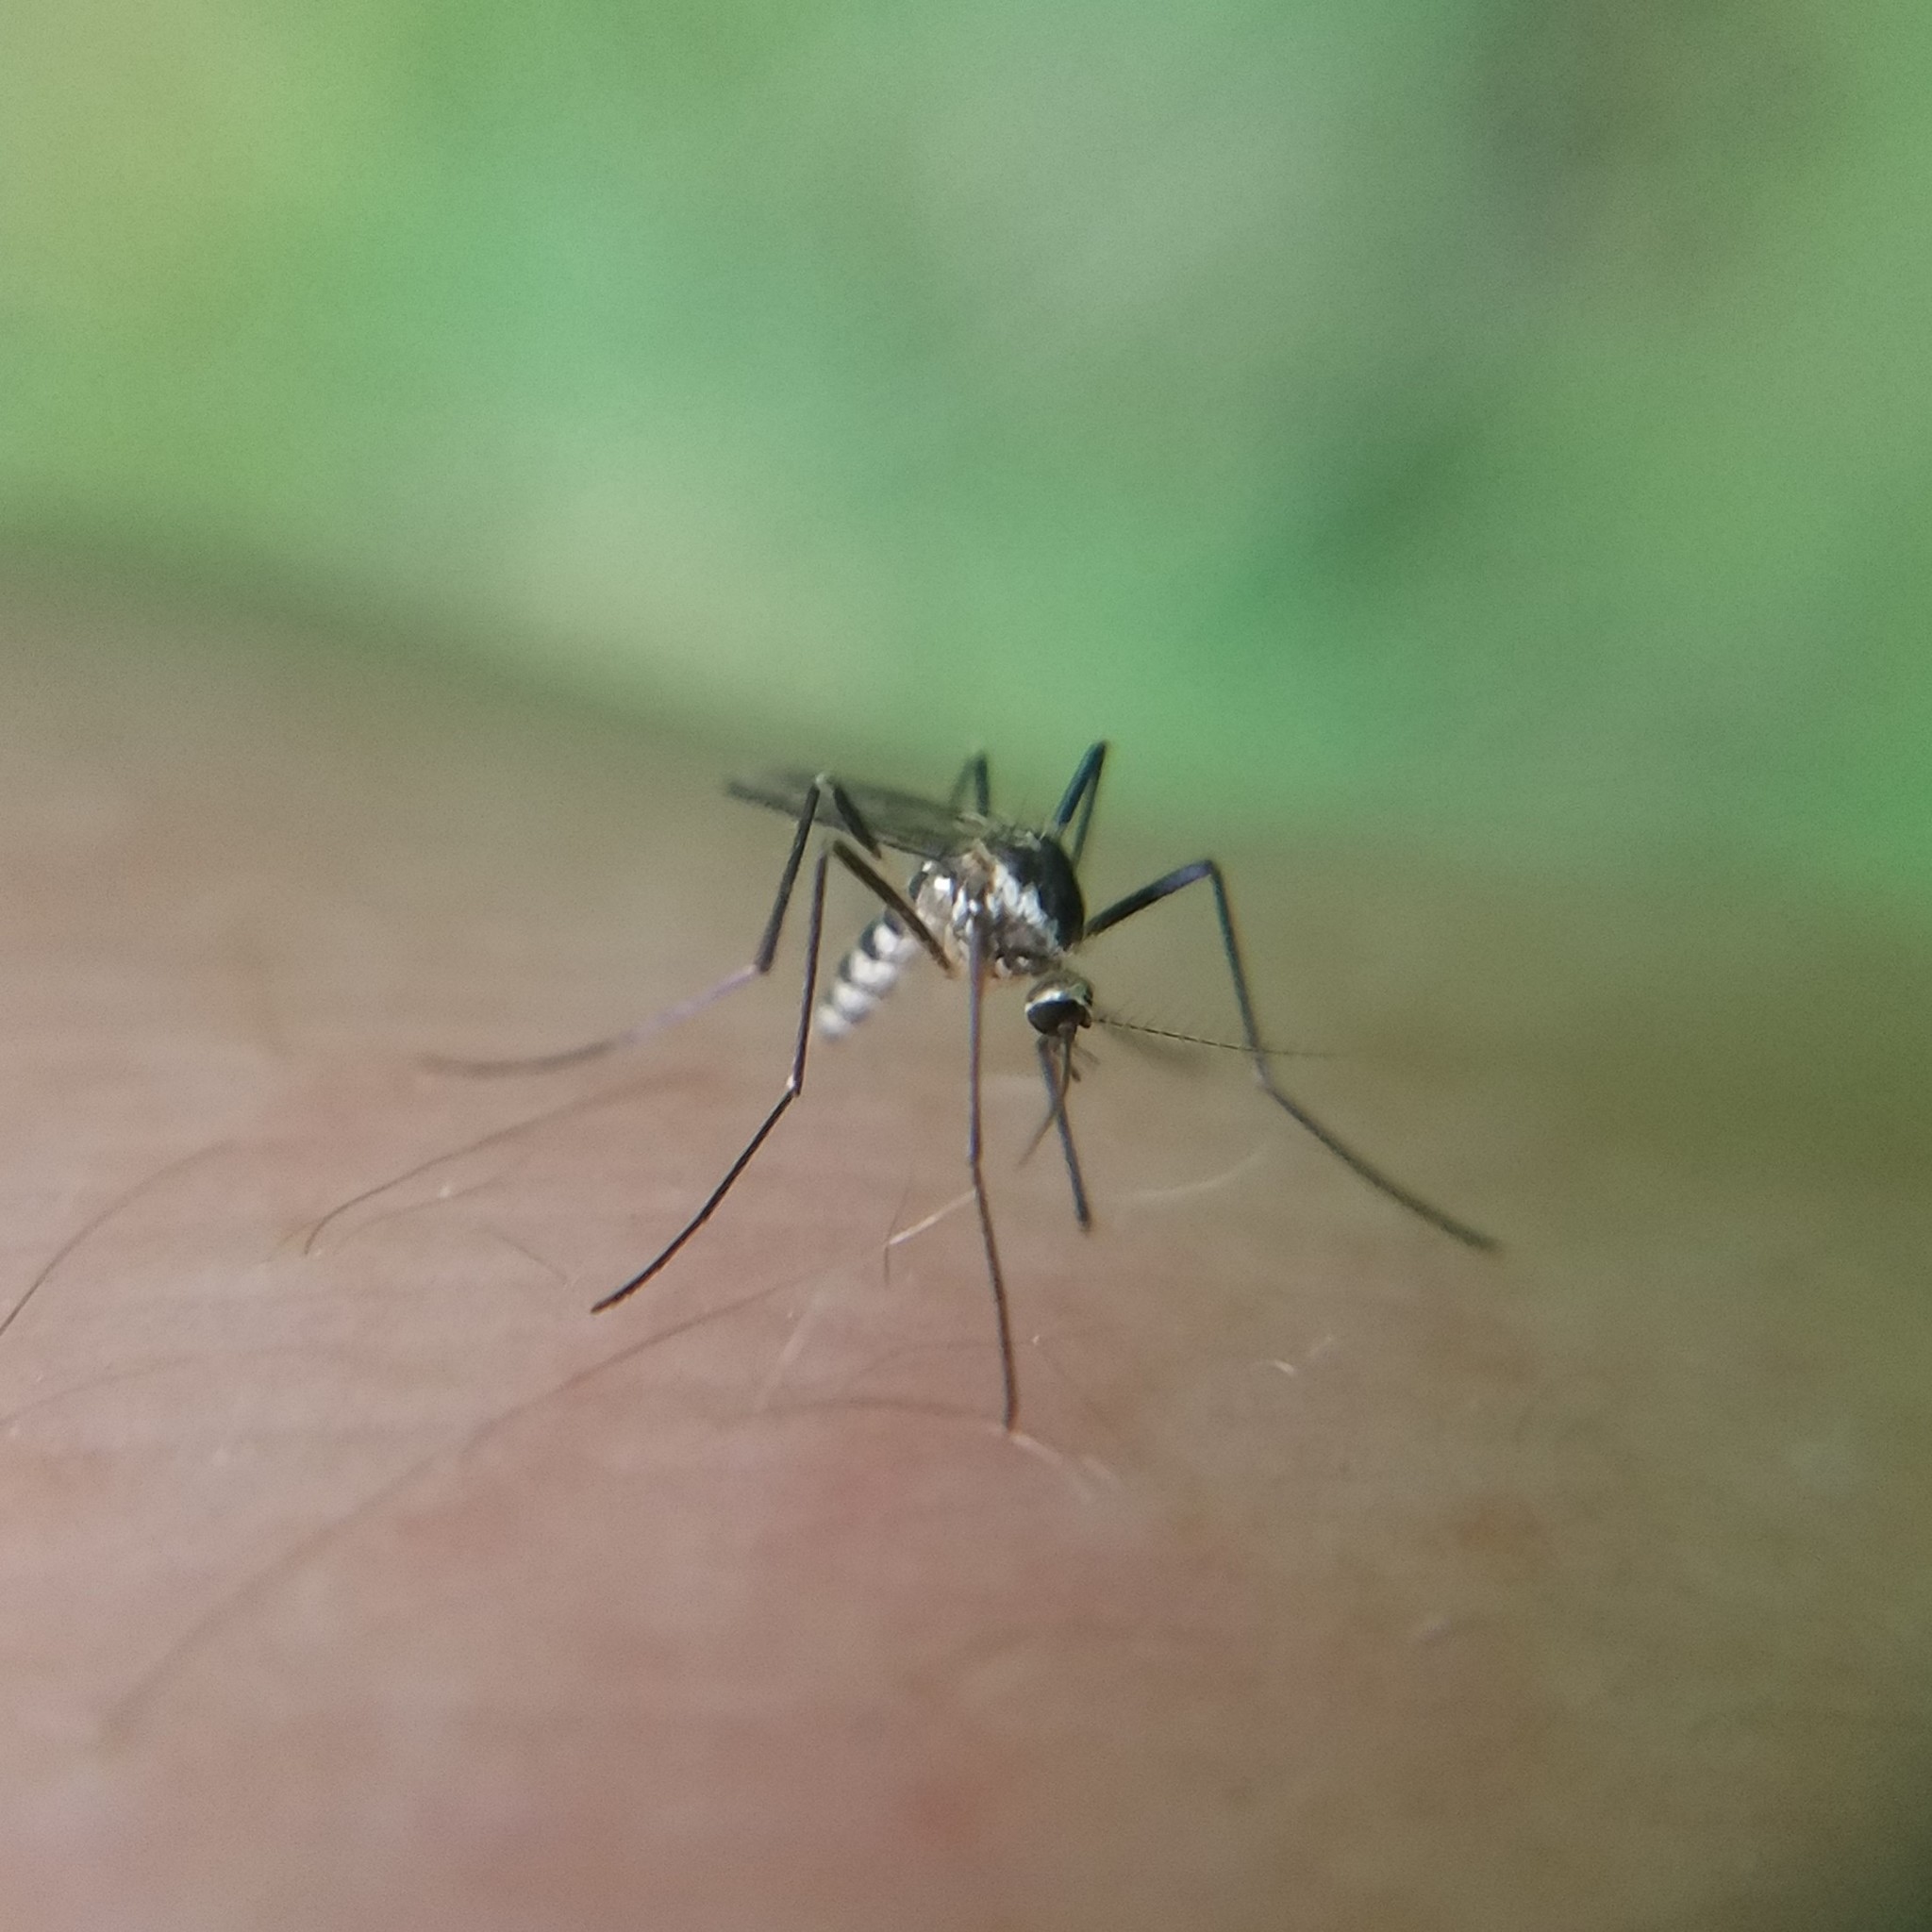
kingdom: Animalia
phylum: Arthropoda
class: Insecta
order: Diptera
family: Culicidae
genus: Aedes
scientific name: Aedes triseriatus
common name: Eastern treehole mosquito
